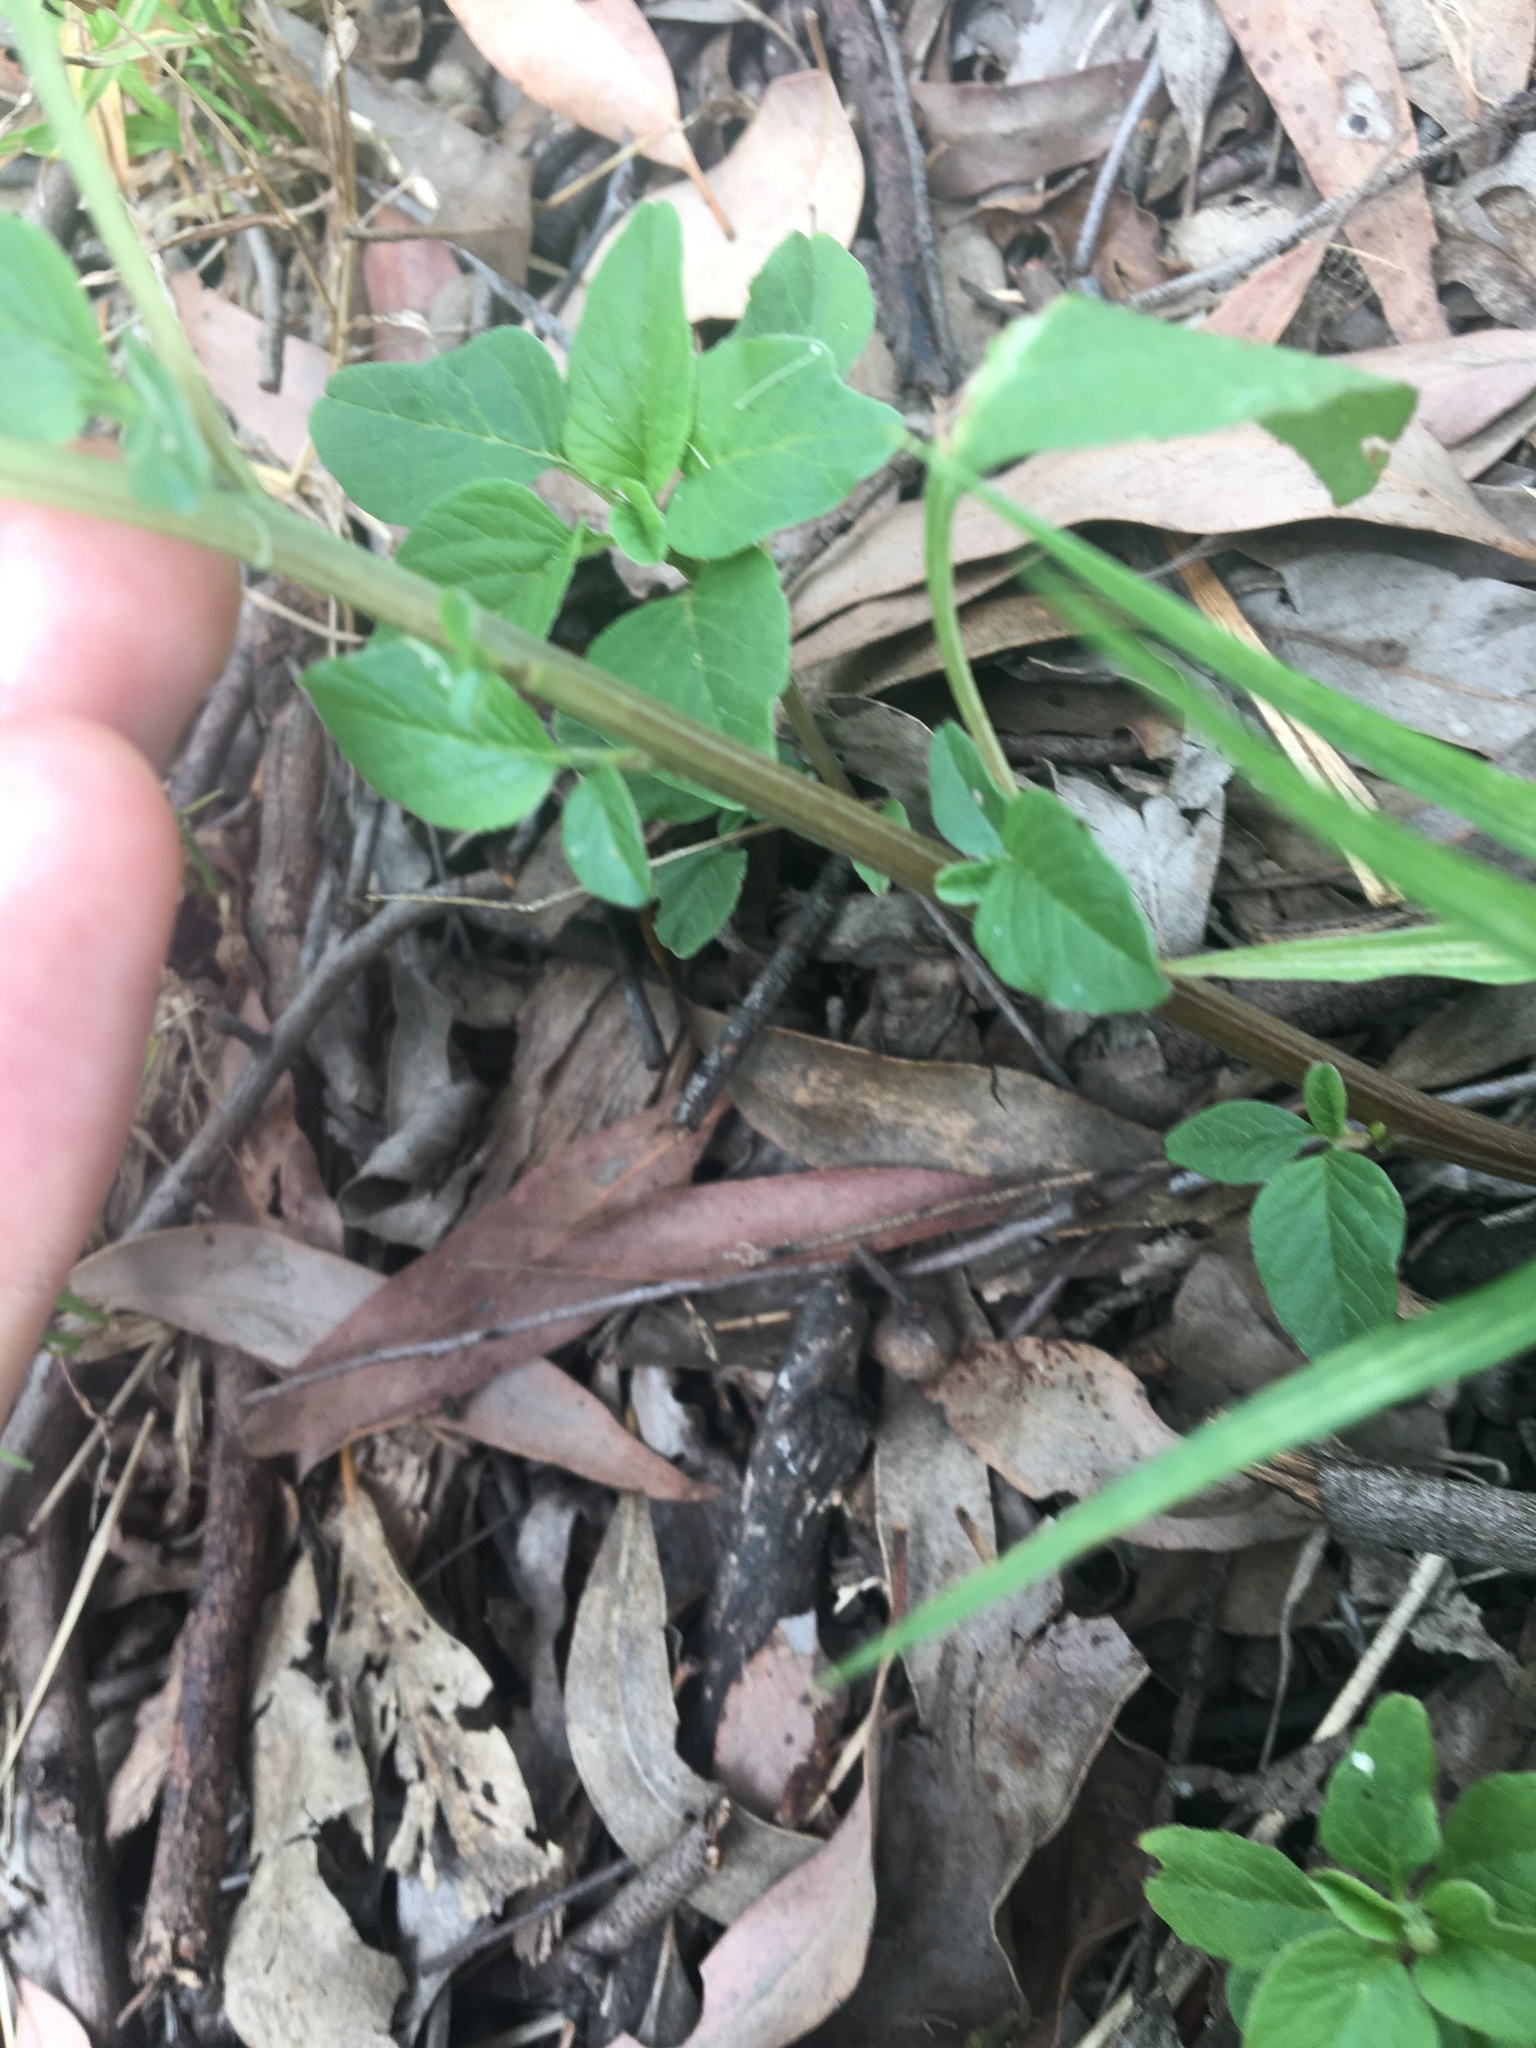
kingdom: Plantae
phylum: Tracheophyta
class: Magnoliopsida
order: Caryophyllales
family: Amaranthaceae
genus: Amaranthus
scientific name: Amaranthus viridis
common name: Slender amaranth
